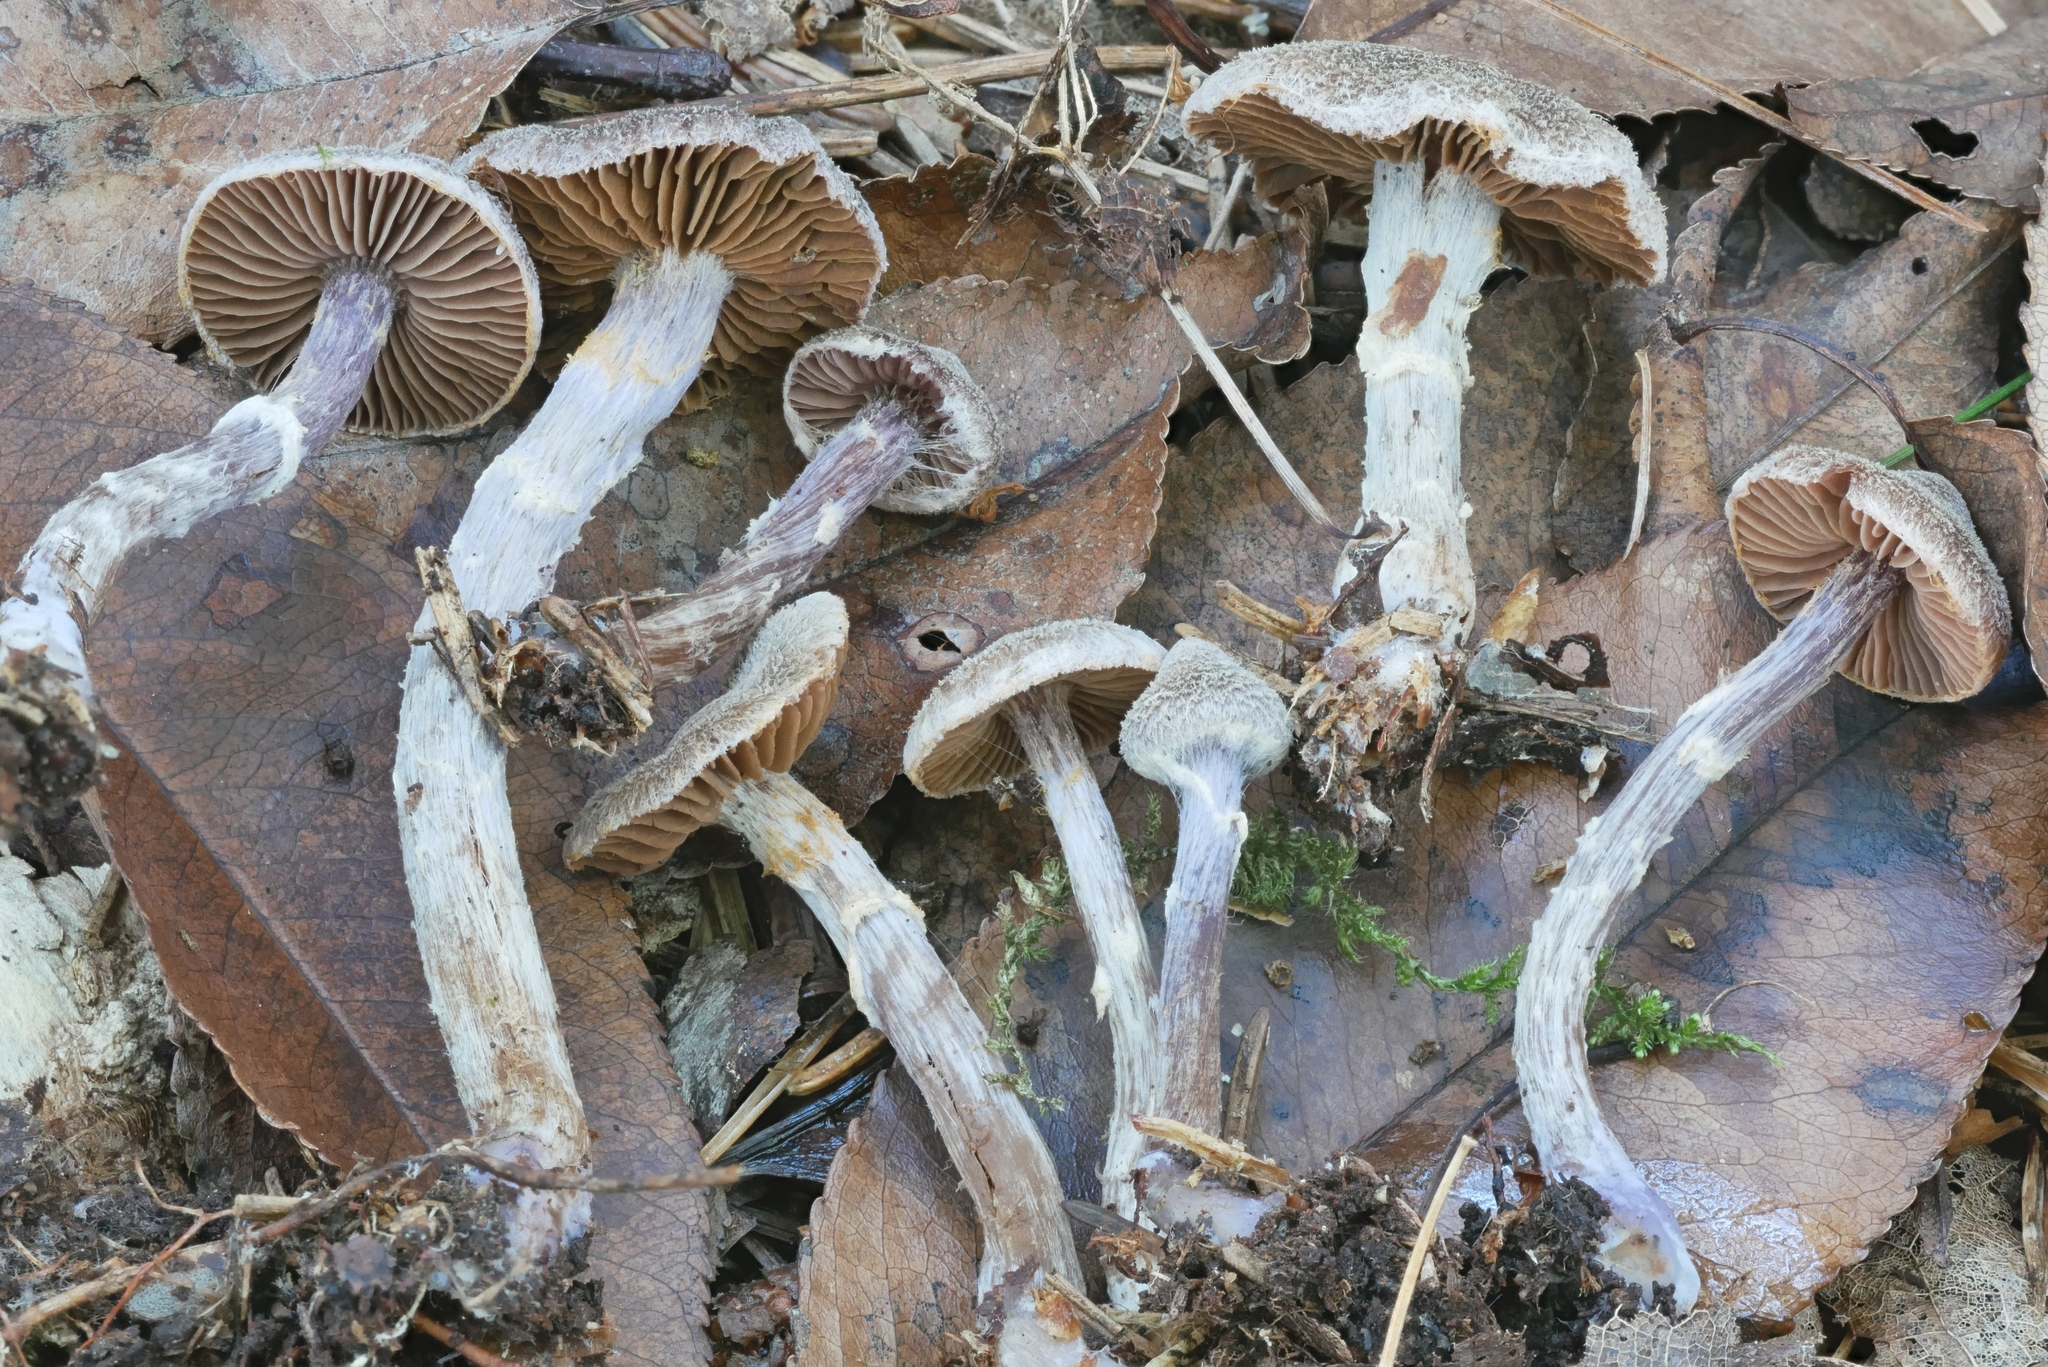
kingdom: Fungi
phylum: Basidiomycota
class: Agaricomycetes
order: Agaricales
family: Cortinariaceae
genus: Cortinarius
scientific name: Cortinarius flexipes
